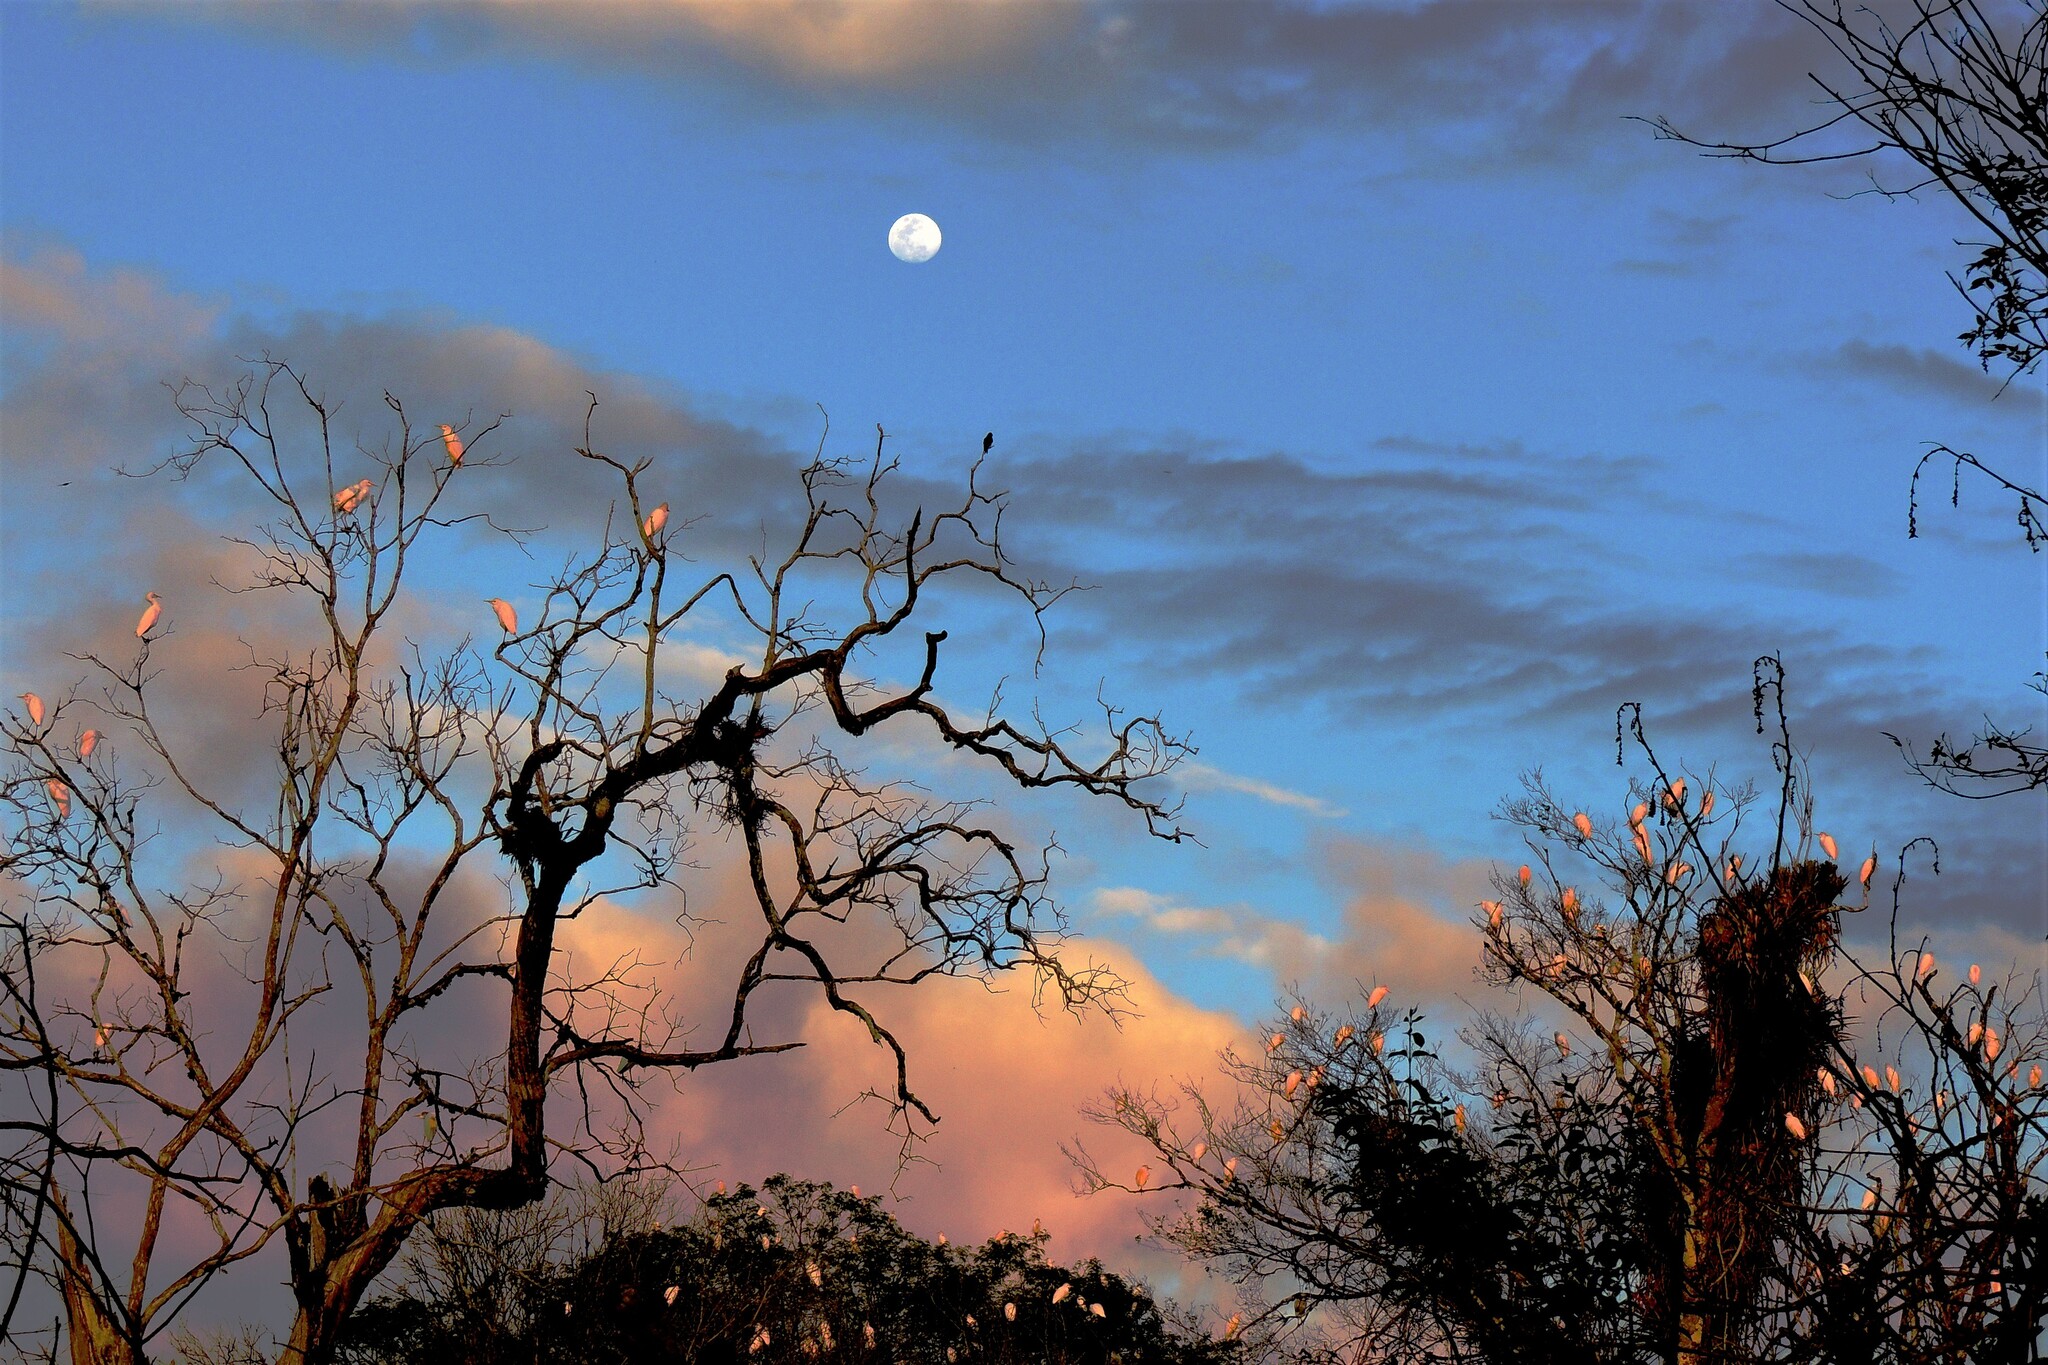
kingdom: Animalia
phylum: Chordata
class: Aves
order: Pelecaniformes
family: Ardeidae
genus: Bubulcus
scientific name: Bubulcus ibis
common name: Cattle egret
